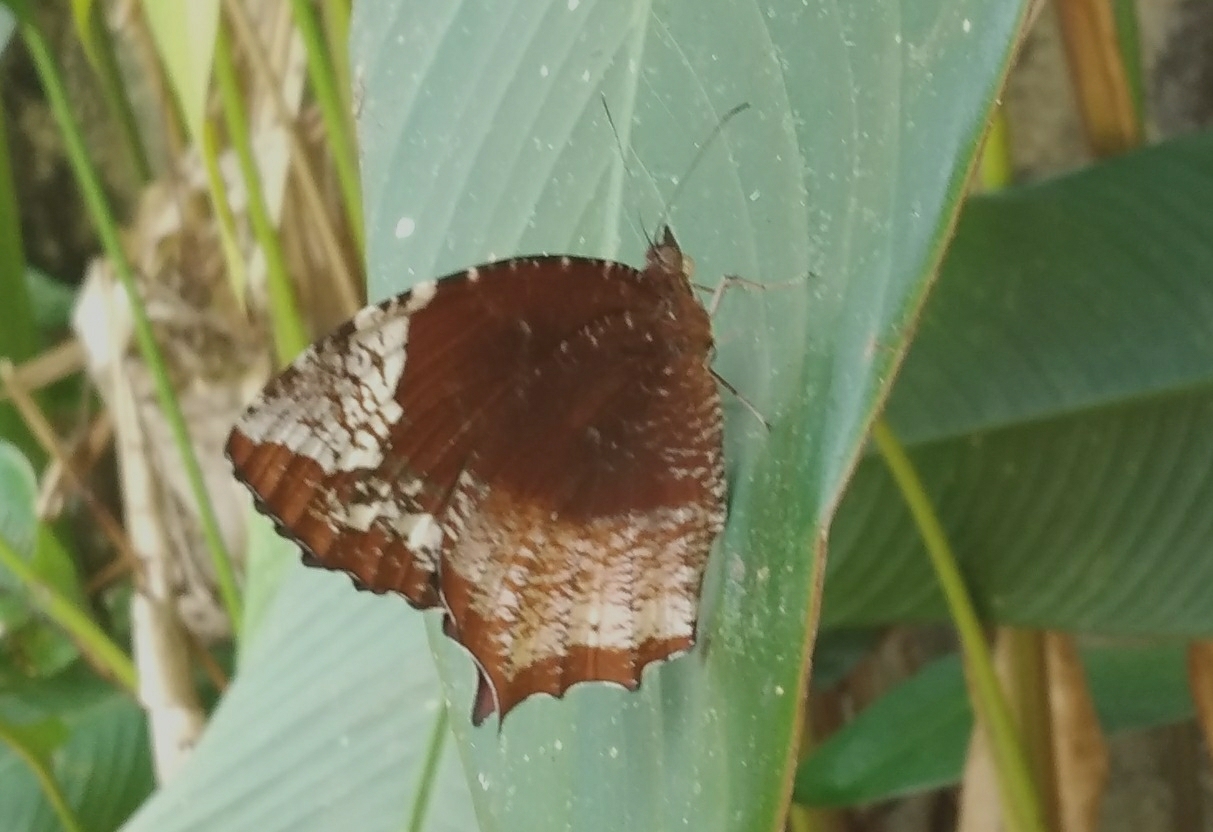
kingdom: Animalia
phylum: Arthropoda
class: Insecta
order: Lepidoptera
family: Nymphalidae
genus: Elymnias
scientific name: Elymnias caudata
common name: Tailed palmfly
